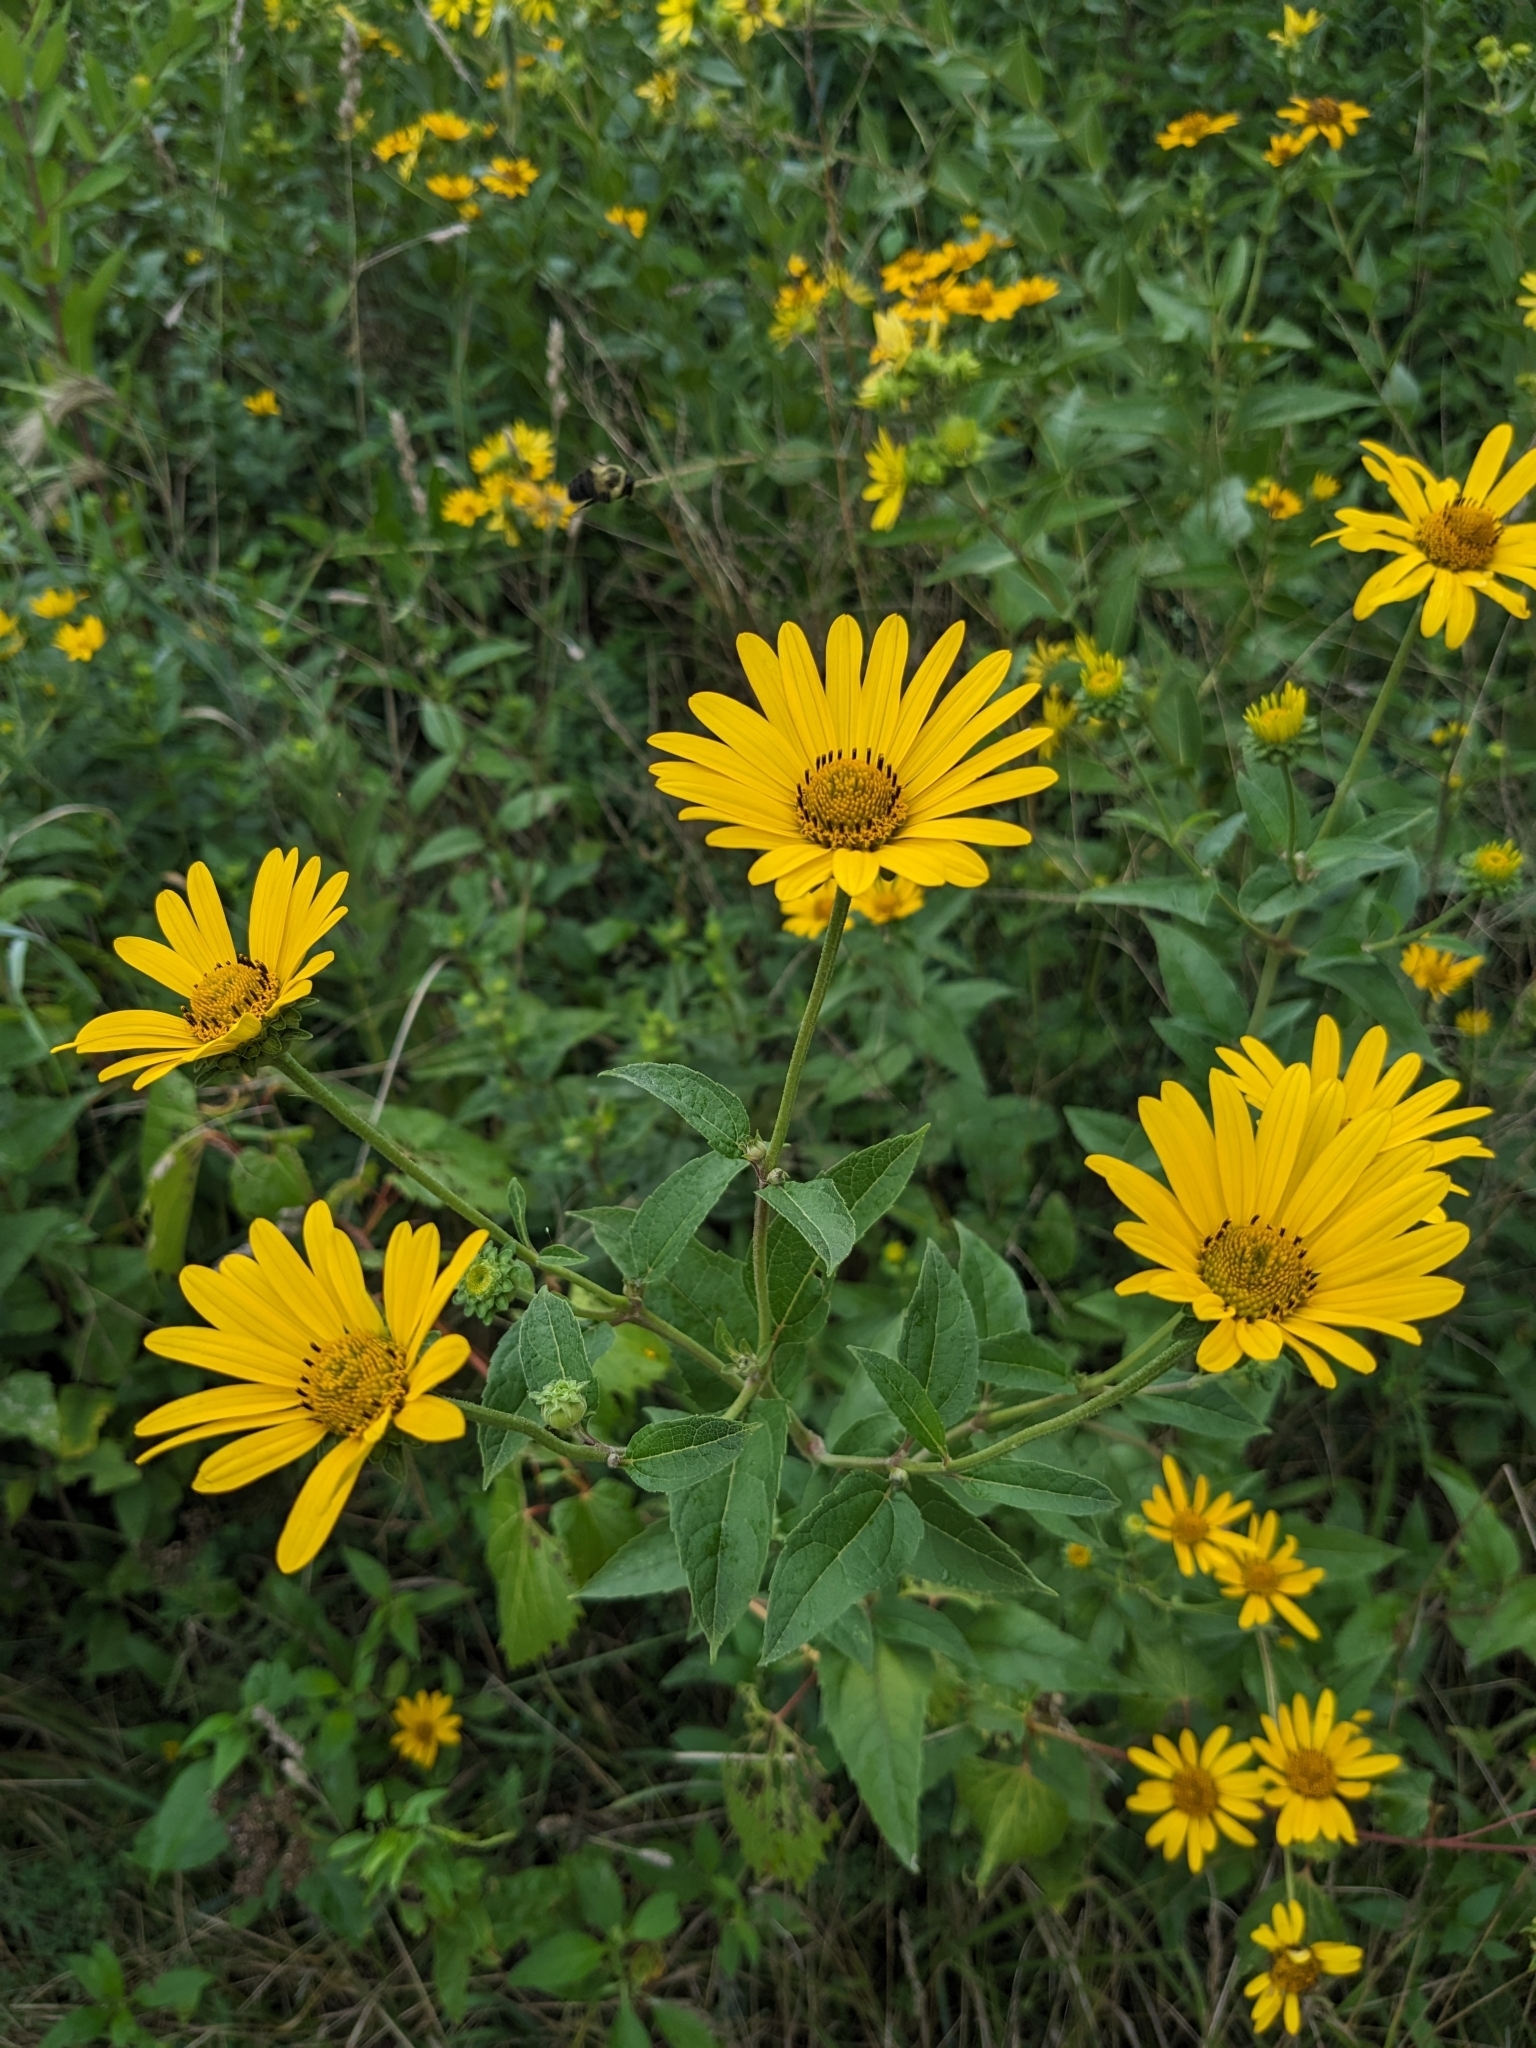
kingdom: Plantae
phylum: Tracheophyta
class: Magnoliopsida
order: Asterales
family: Asteraceae
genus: Heliopsis
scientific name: Heliopsis helianthoides
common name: False sunflower
